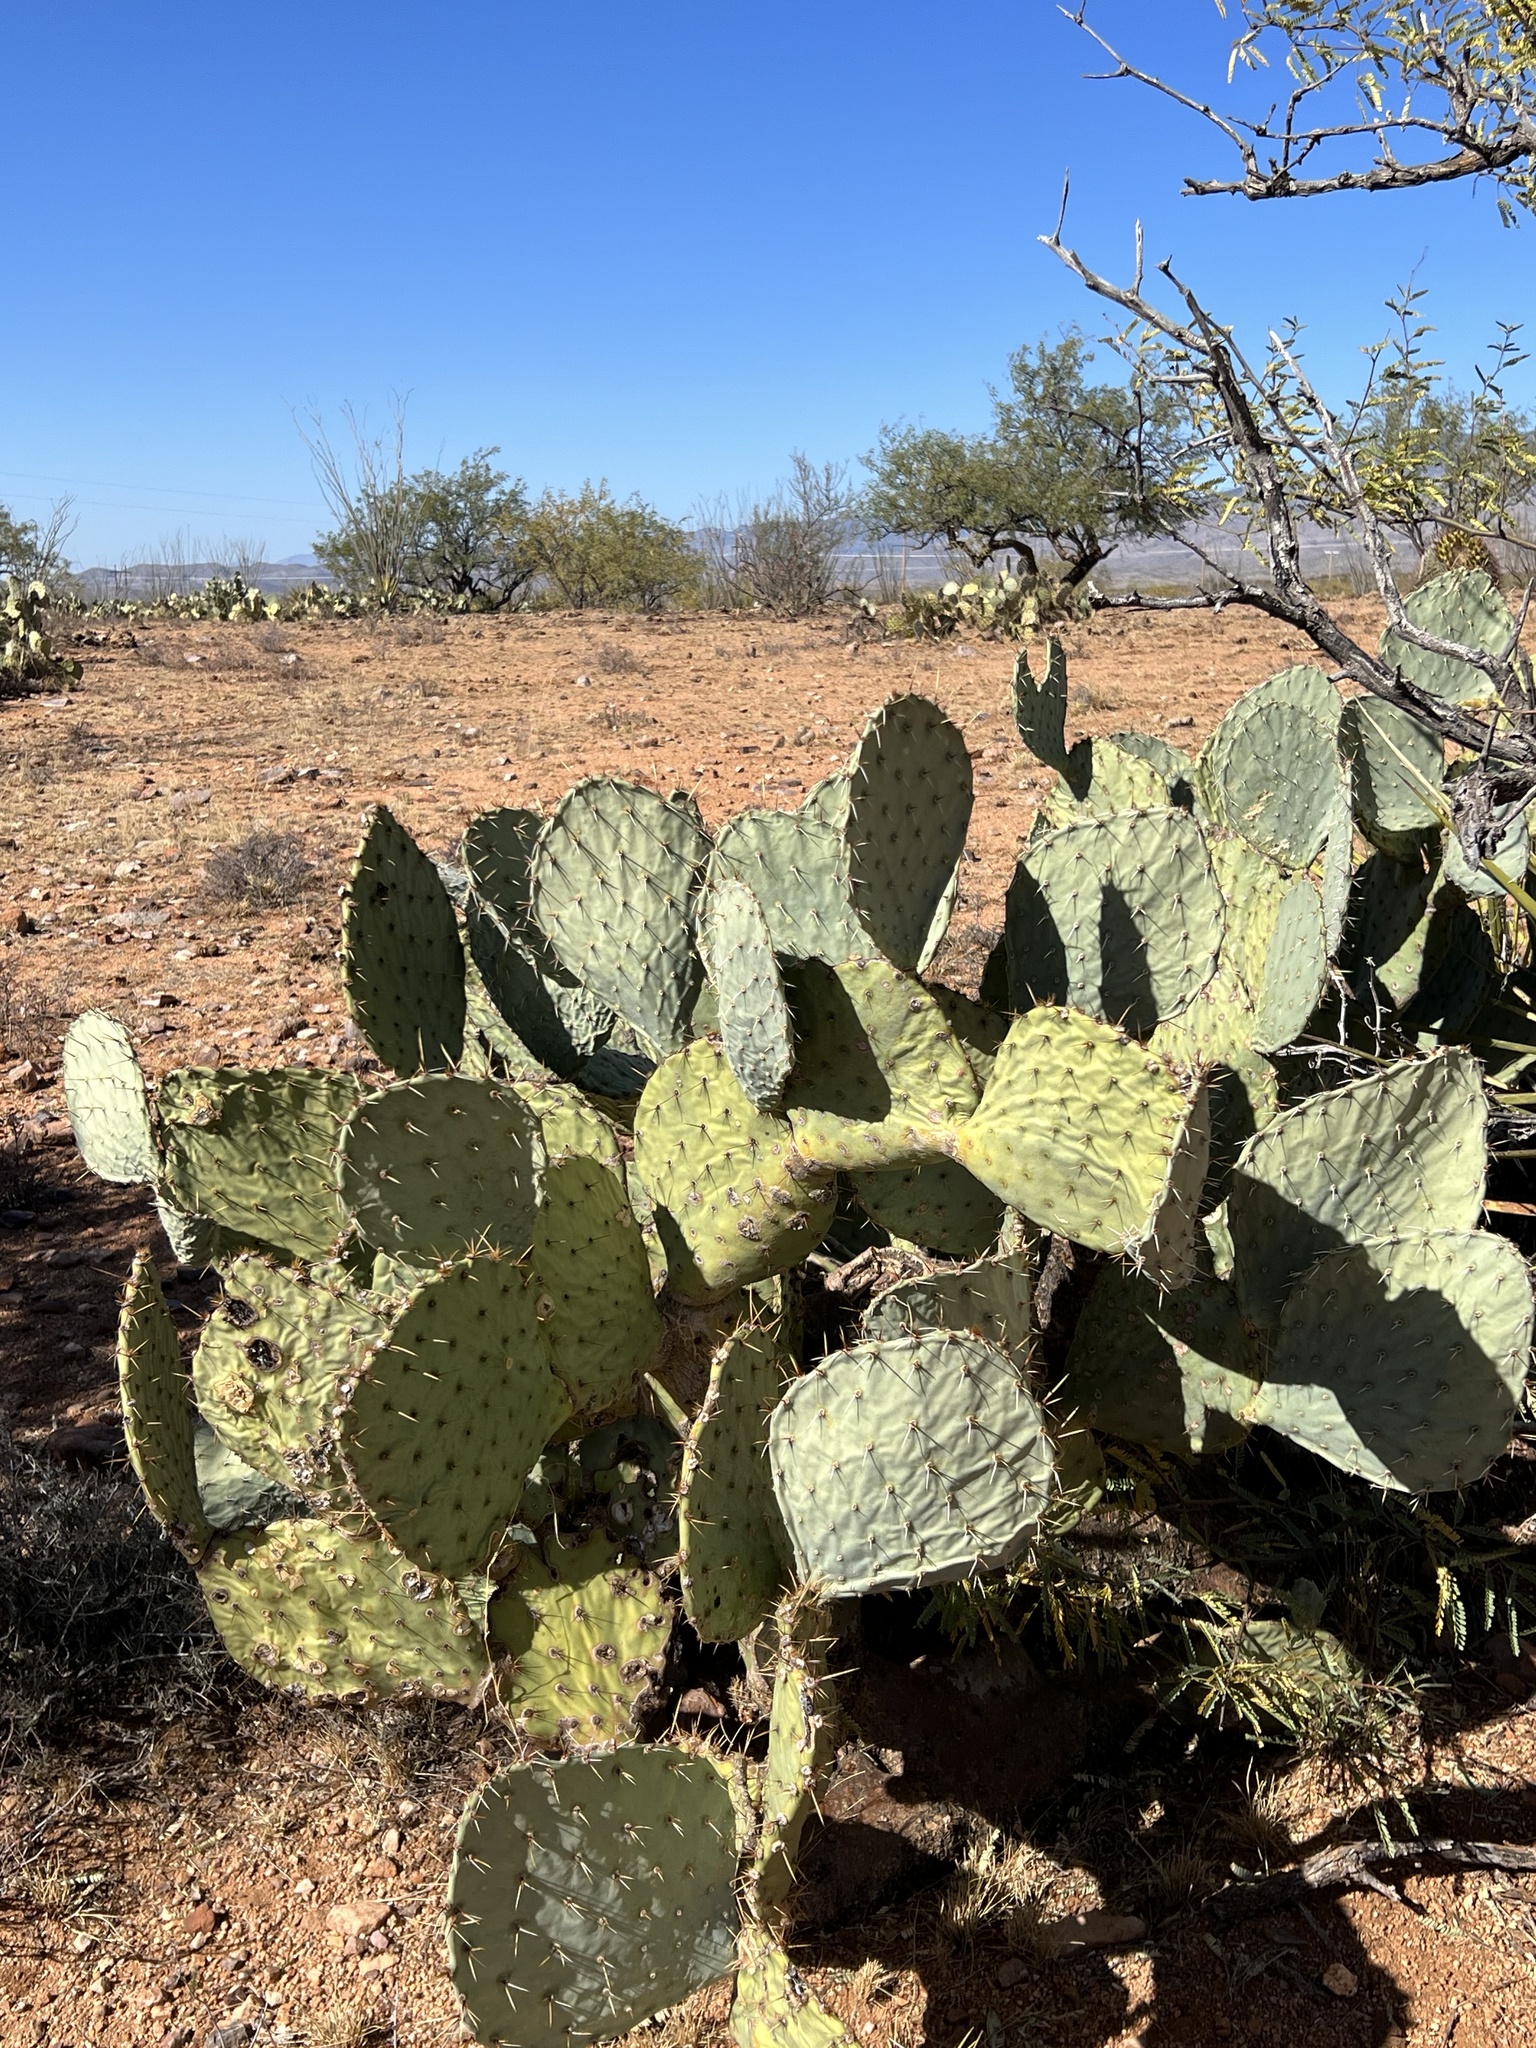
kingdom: Plantae
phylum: Tracheophyta
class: Magnoliopsida
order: Caryophyllales
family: Cactaceae
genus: Opuntia
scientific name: Opuntia engelmannii
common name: Cactus-apple
